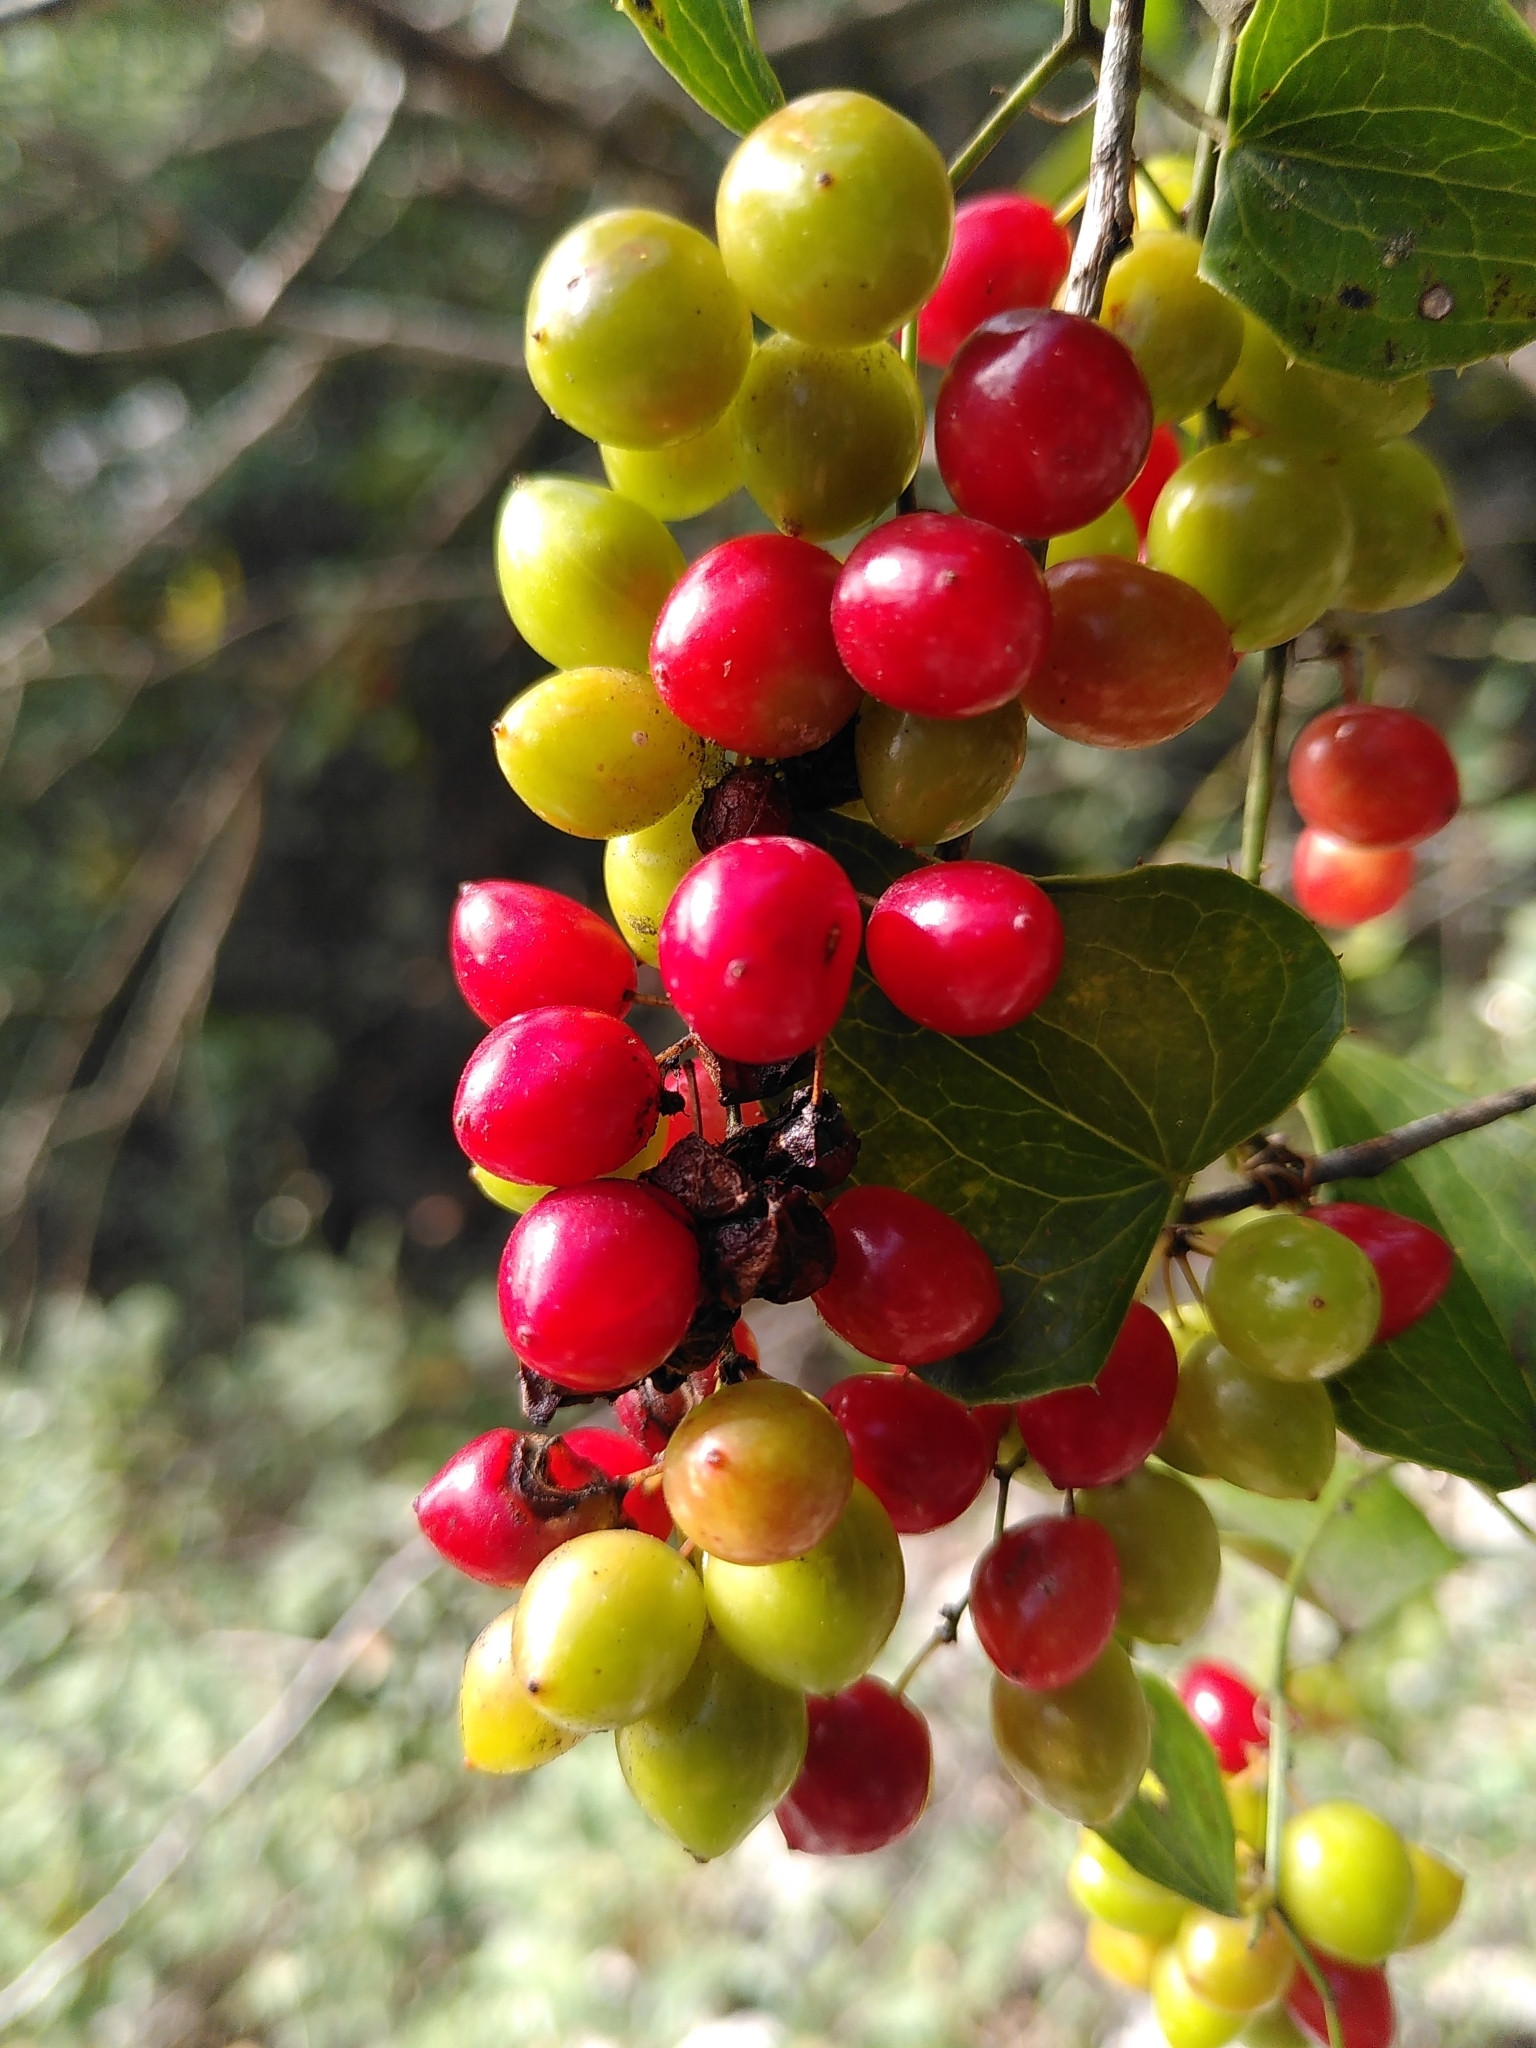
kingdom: Plantae
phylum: Tracheophyta
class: Liliopsida
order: Liliales
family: Smilacaceae
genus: Smilax
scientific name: Smilax aspera
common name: Common smilax
